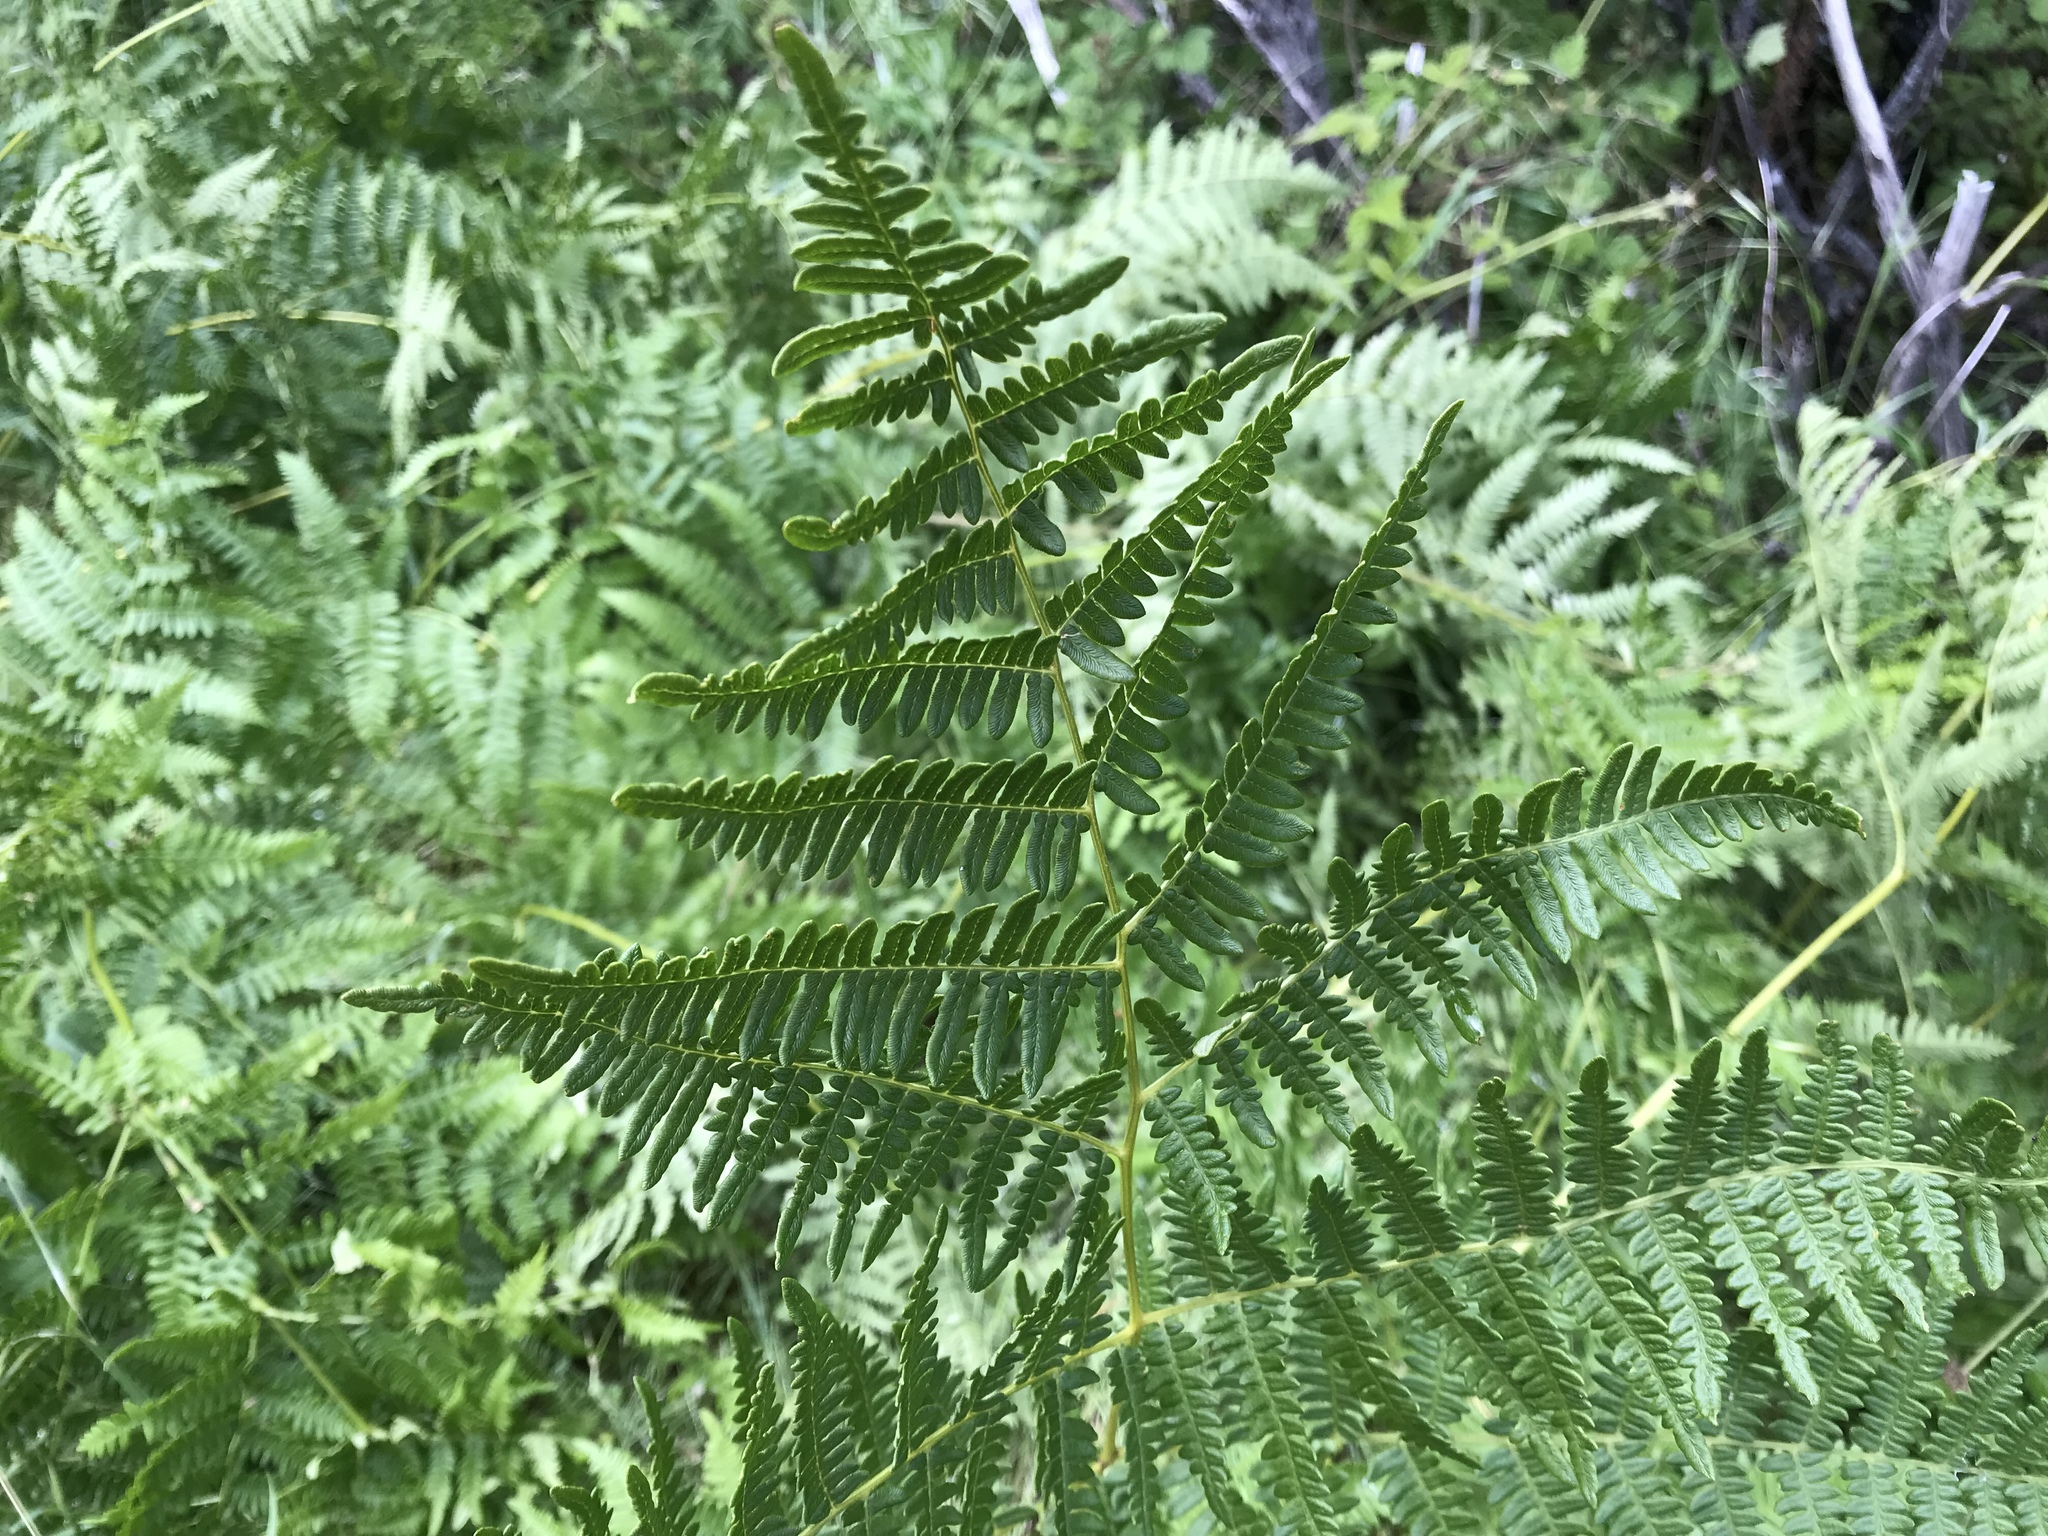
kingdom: Plantae
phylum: Tracheophyta
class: Polypodiopsida
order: Polypodiales
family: Dennstaedtiaceae
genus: Pteridium
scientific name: Pteridium aquilinum
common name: Bracken
